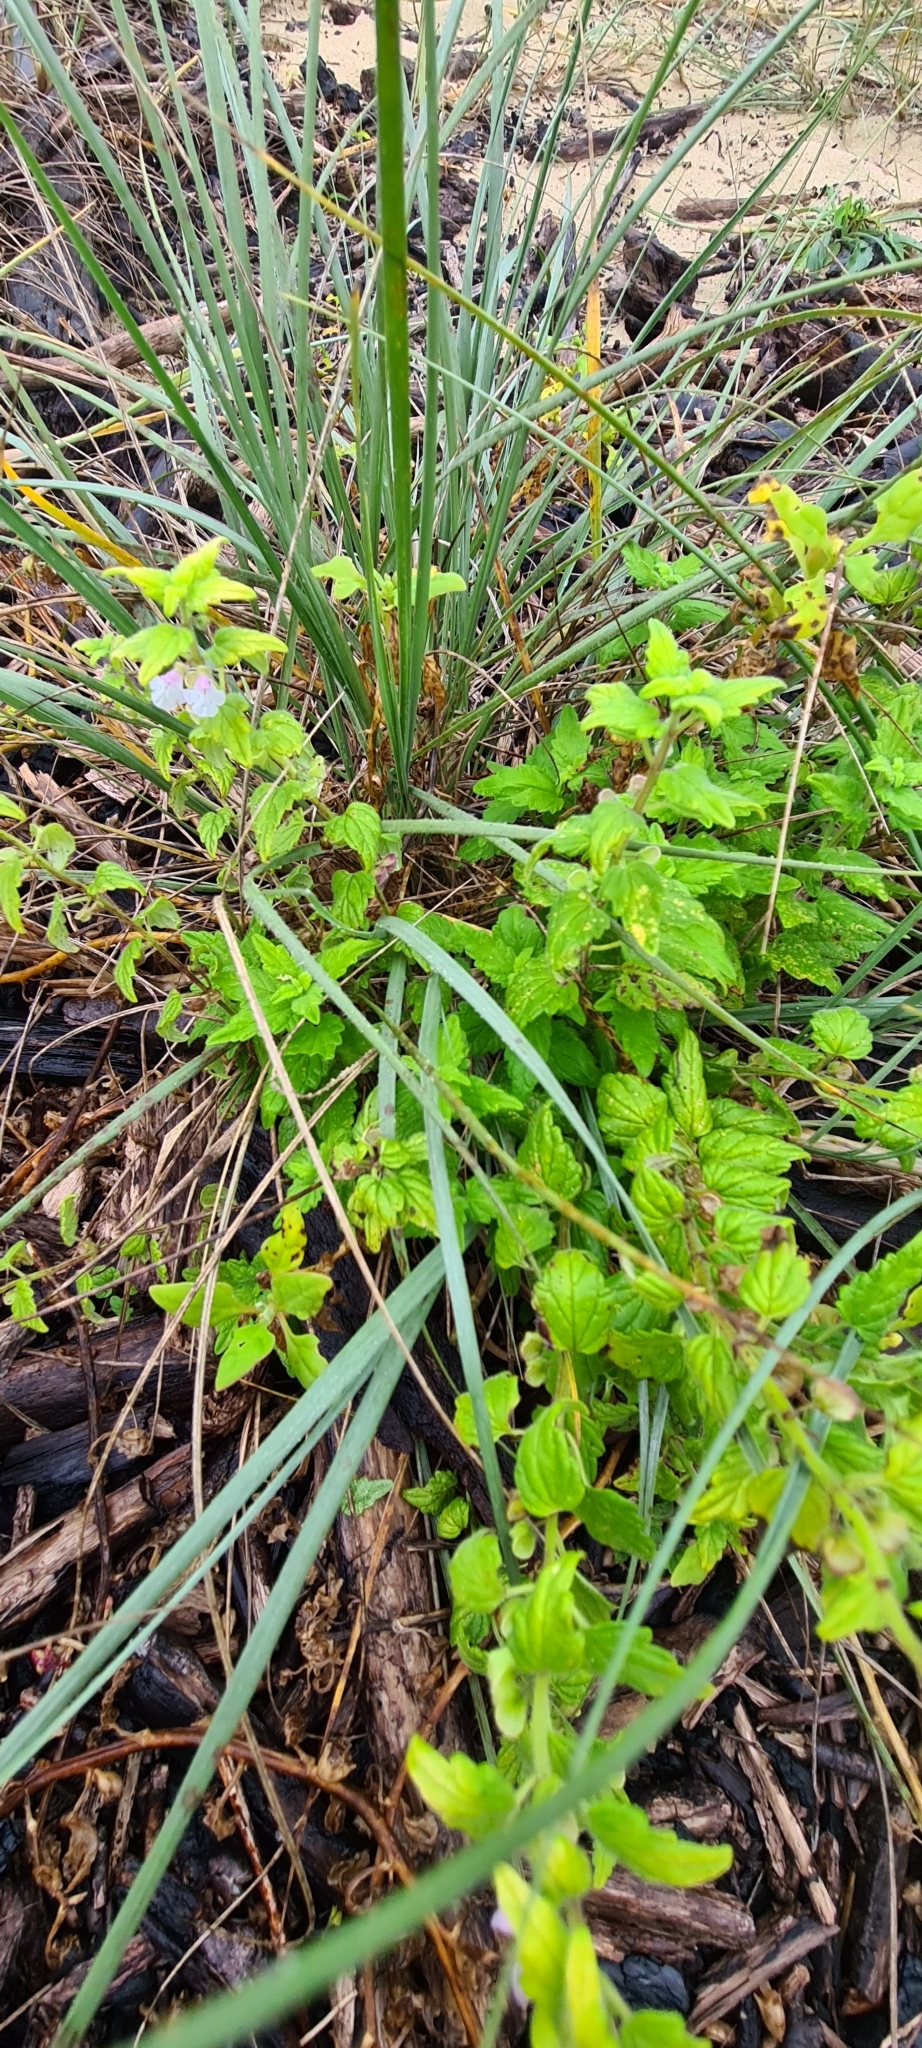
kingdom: Plantae
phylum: Tracheophyta
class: Magnoliopsida
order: Lamiales
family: Lamiaceae
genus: Scutellaria
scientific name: Scutellaria mollis
